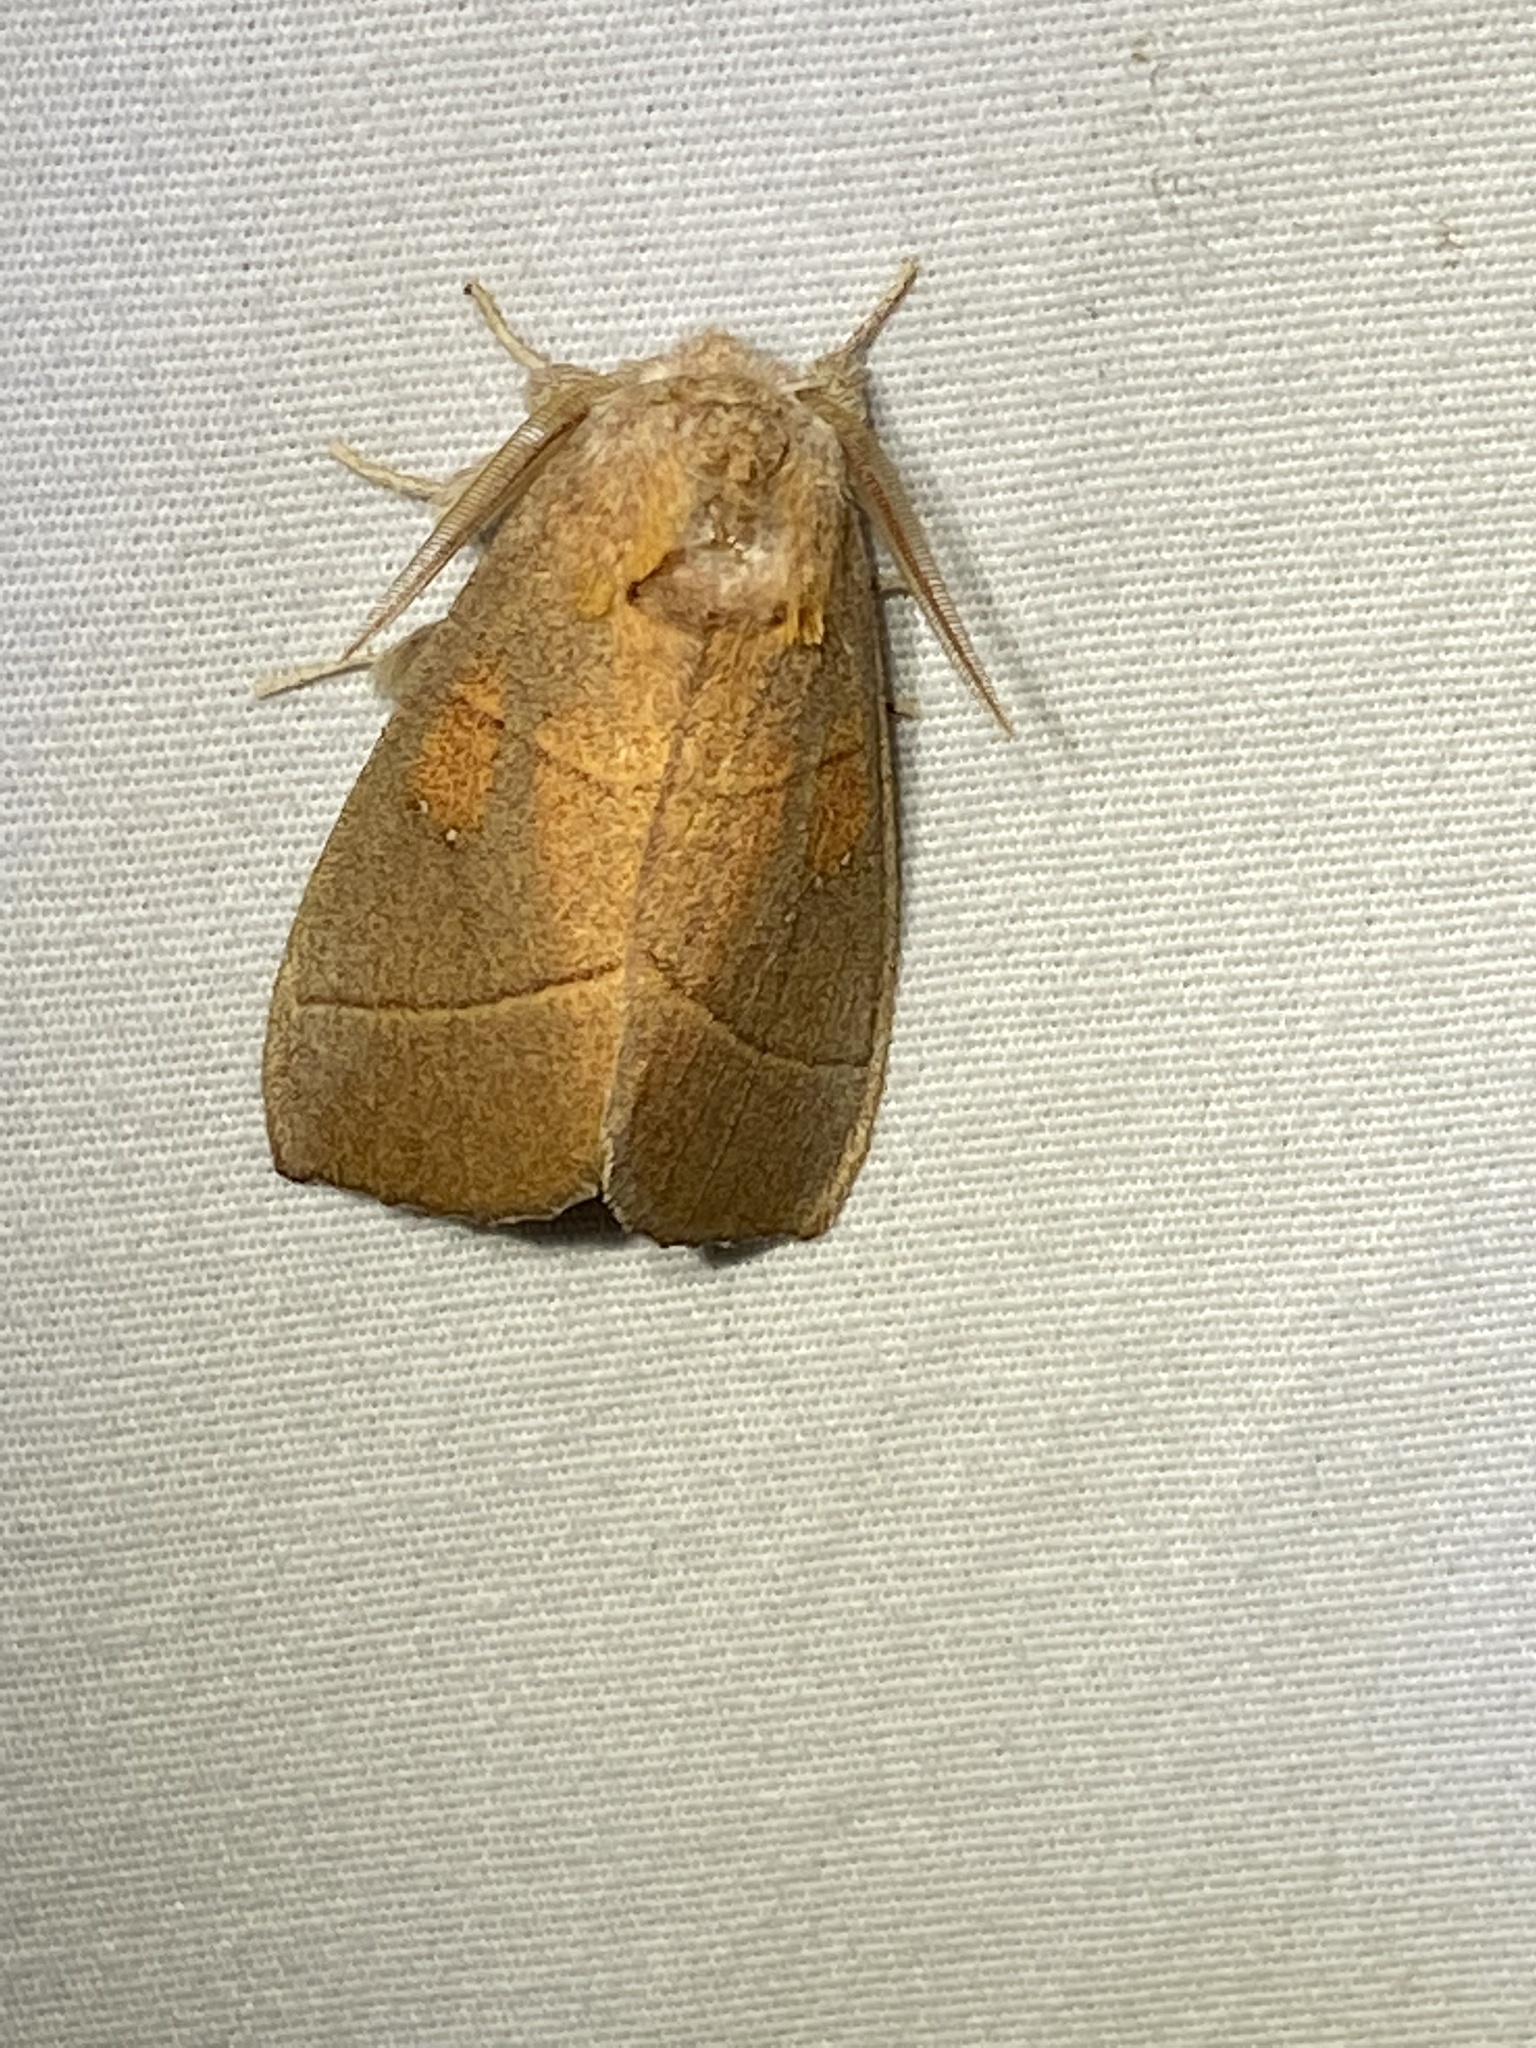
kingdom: Animalia
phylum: Arthropoda
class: Insecta
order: Lepidoptera
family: Notodontidae
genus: Nadata
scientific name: Nadata gibbosa
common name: White-dotted prominent
